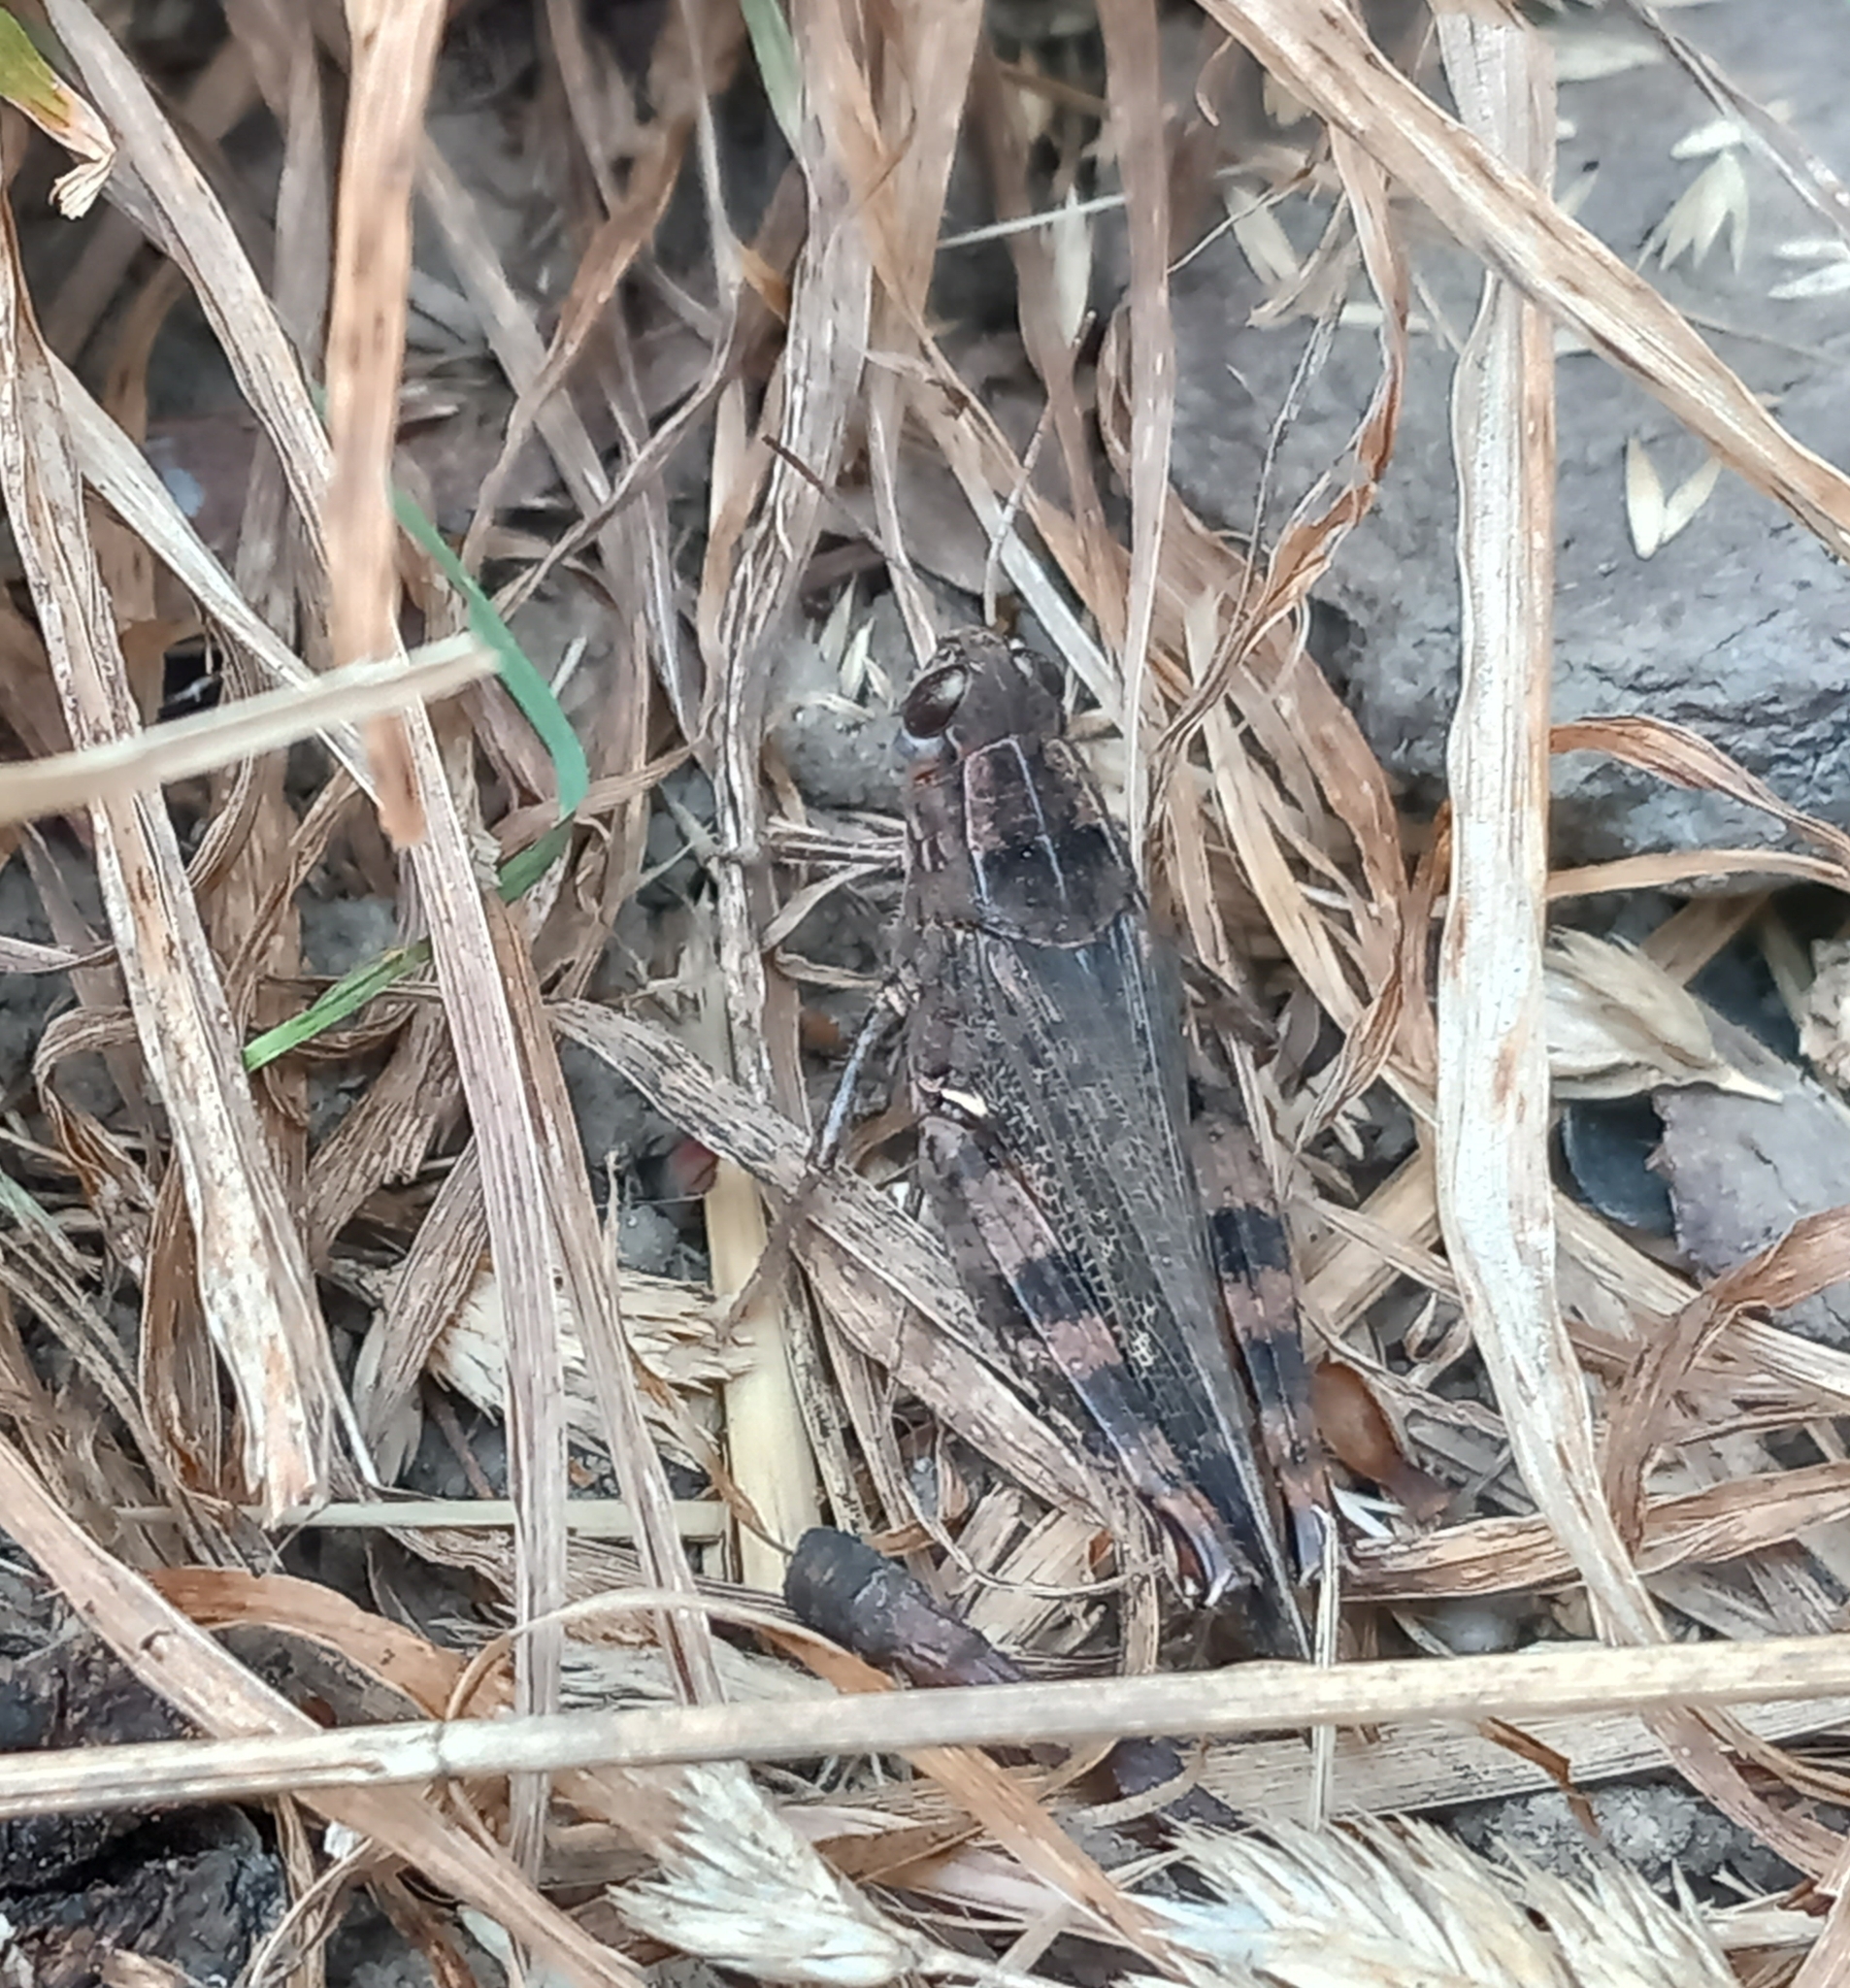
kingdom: Animalia
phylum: Arthropoda
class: Insecta
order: Orthoptera
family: Acrididae
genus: Calliptamus
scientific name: Calliptamus italicus
